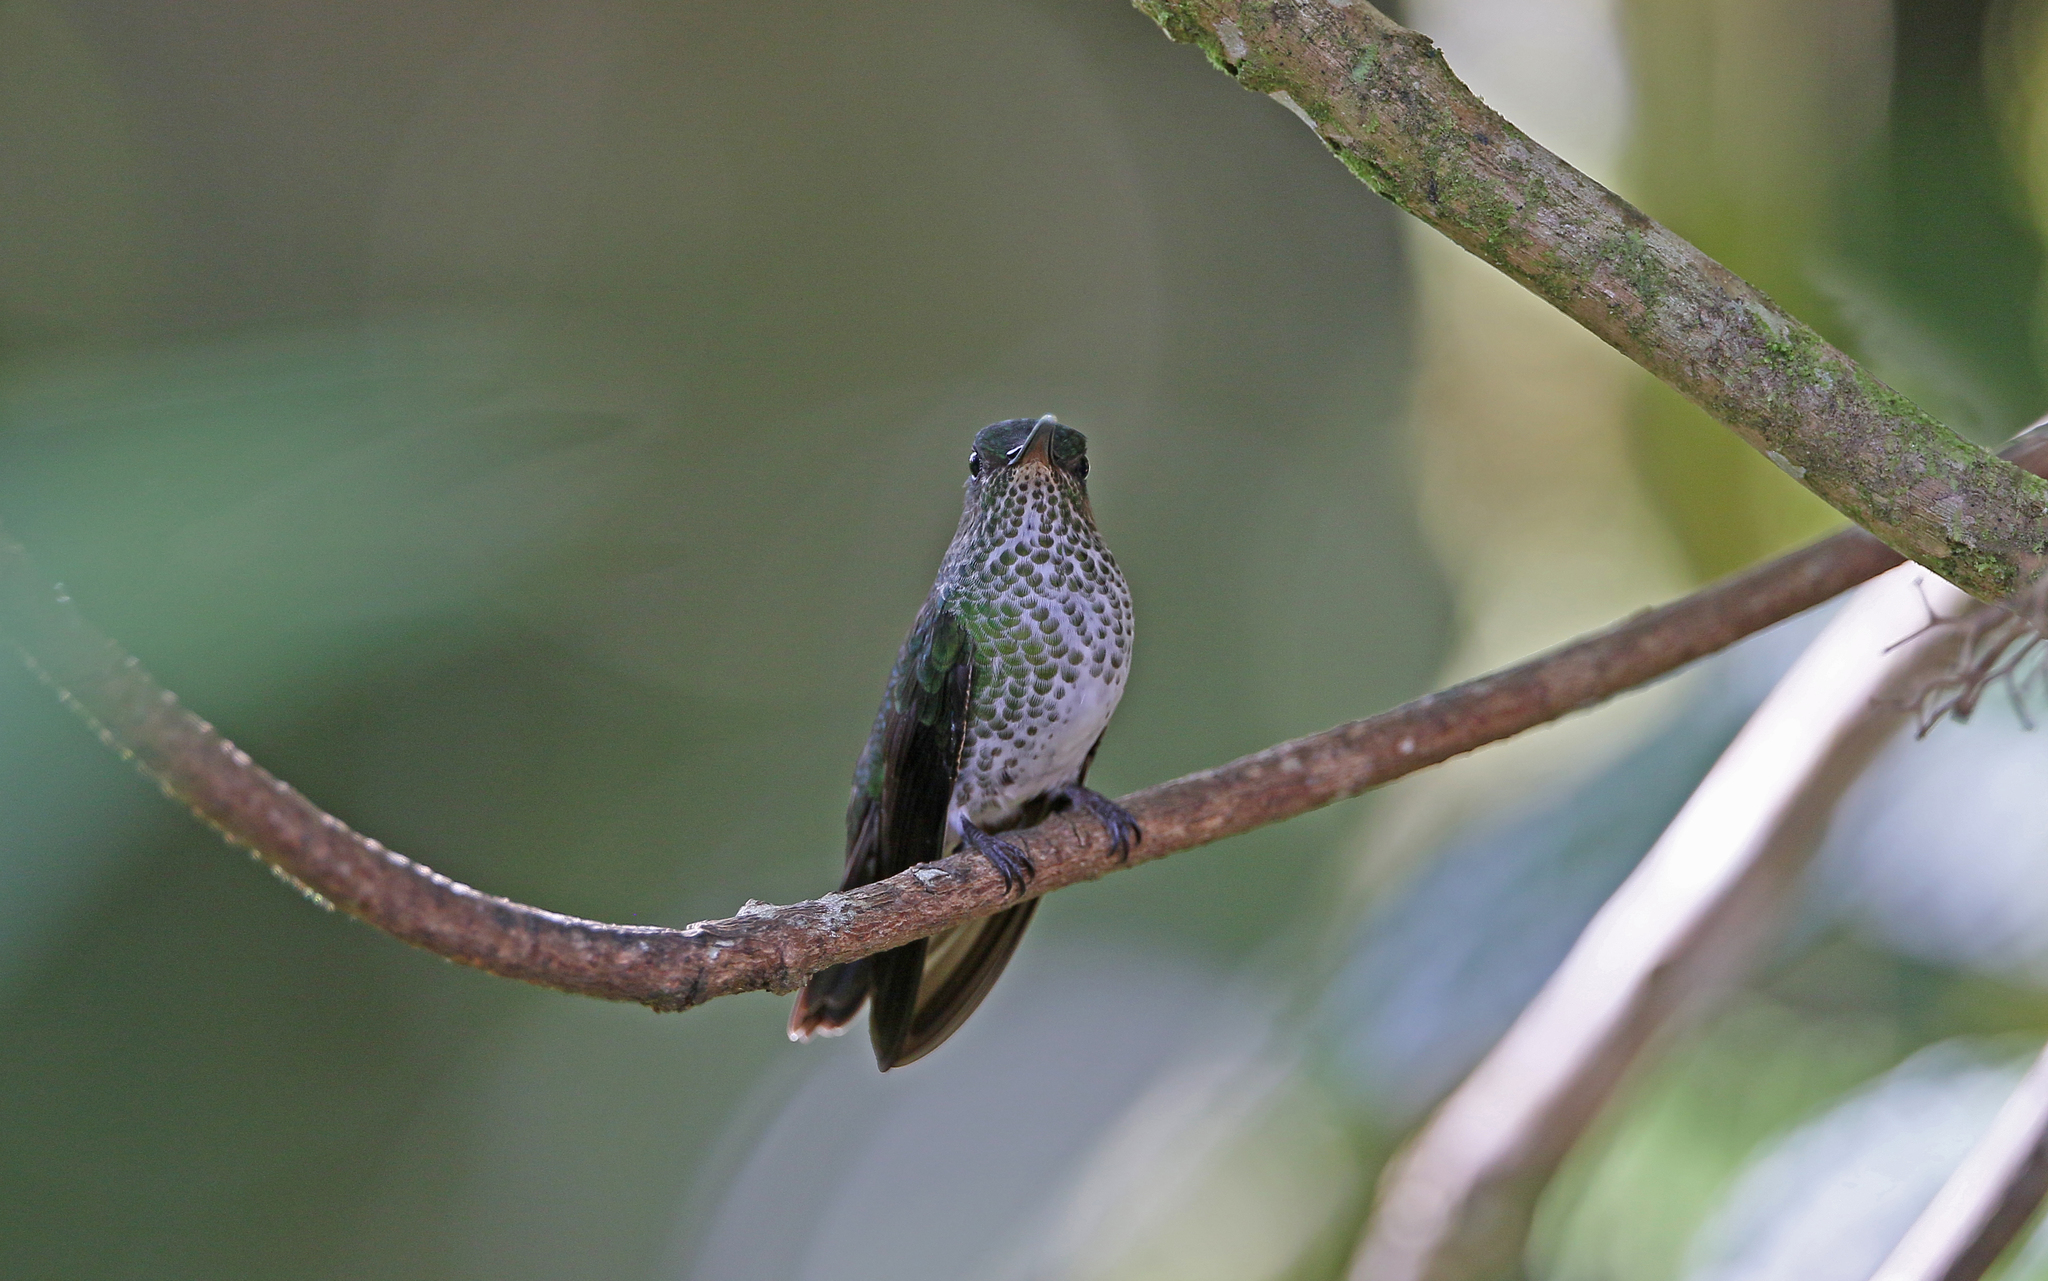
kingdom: Animalia
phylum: Chordata
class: Aves
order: Apodiformes
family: Trochilidae
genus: Taphrospilus
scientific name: Taphrospilus hypostictus
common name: Many-spotted hummingbird
